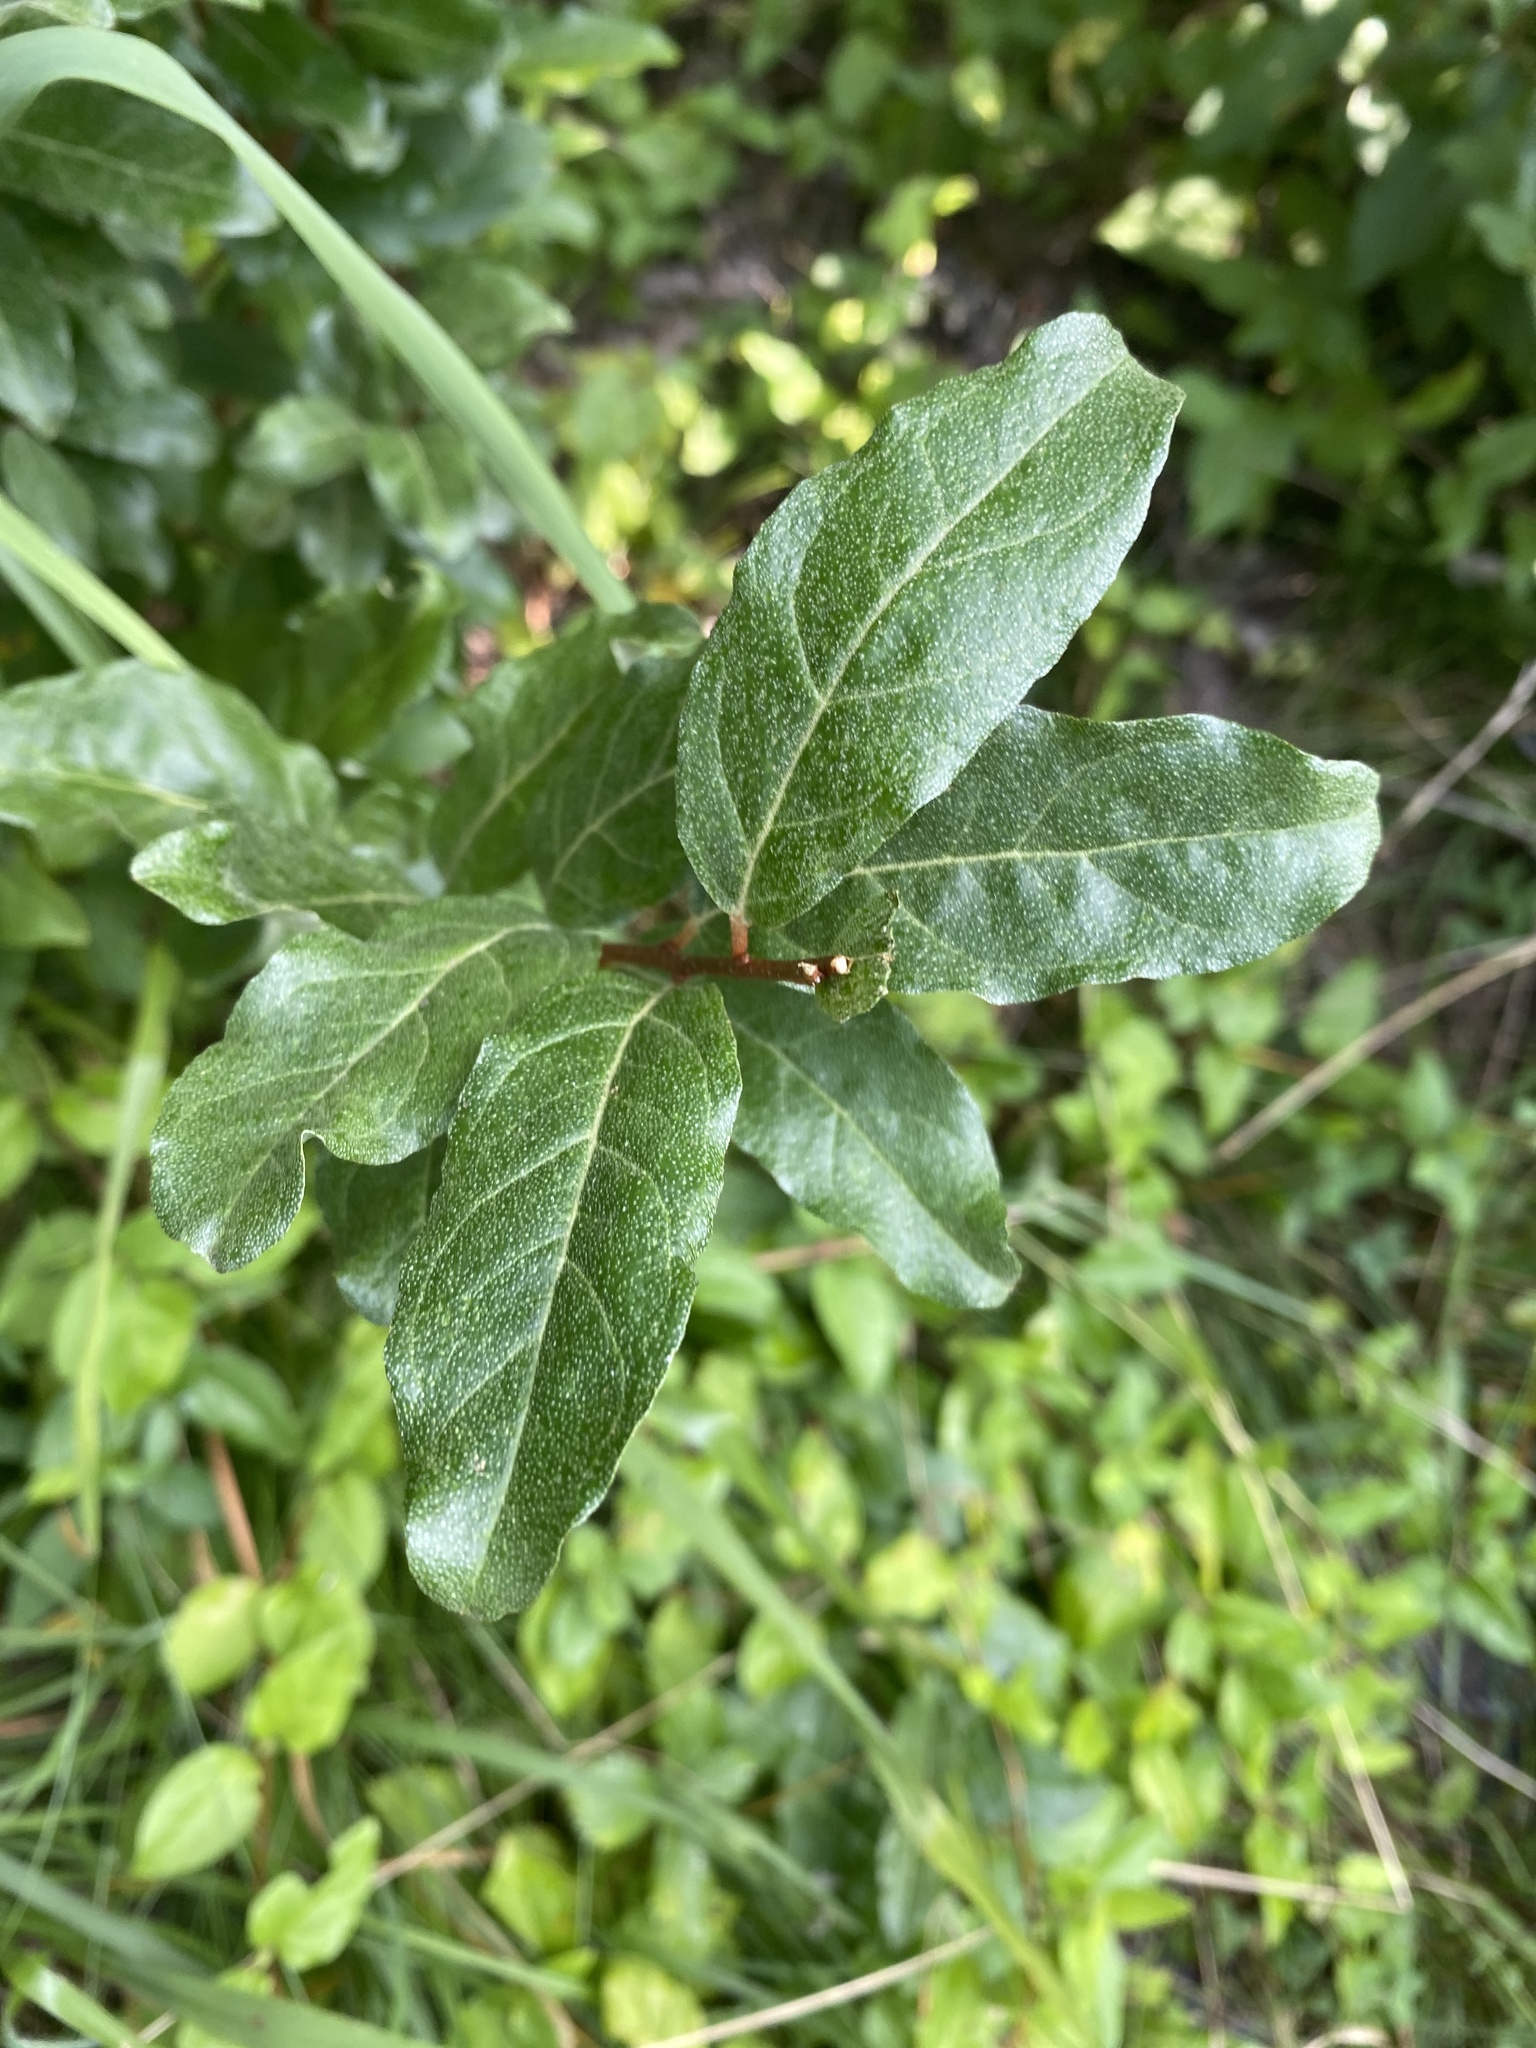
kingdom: Plantae
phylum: Tracheophyta
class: Magnoliopsida
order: Rosales
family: Elaeagnaceae
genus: Elaeagnus
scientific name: Elaeagnus umbellata
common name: Autumn olive
